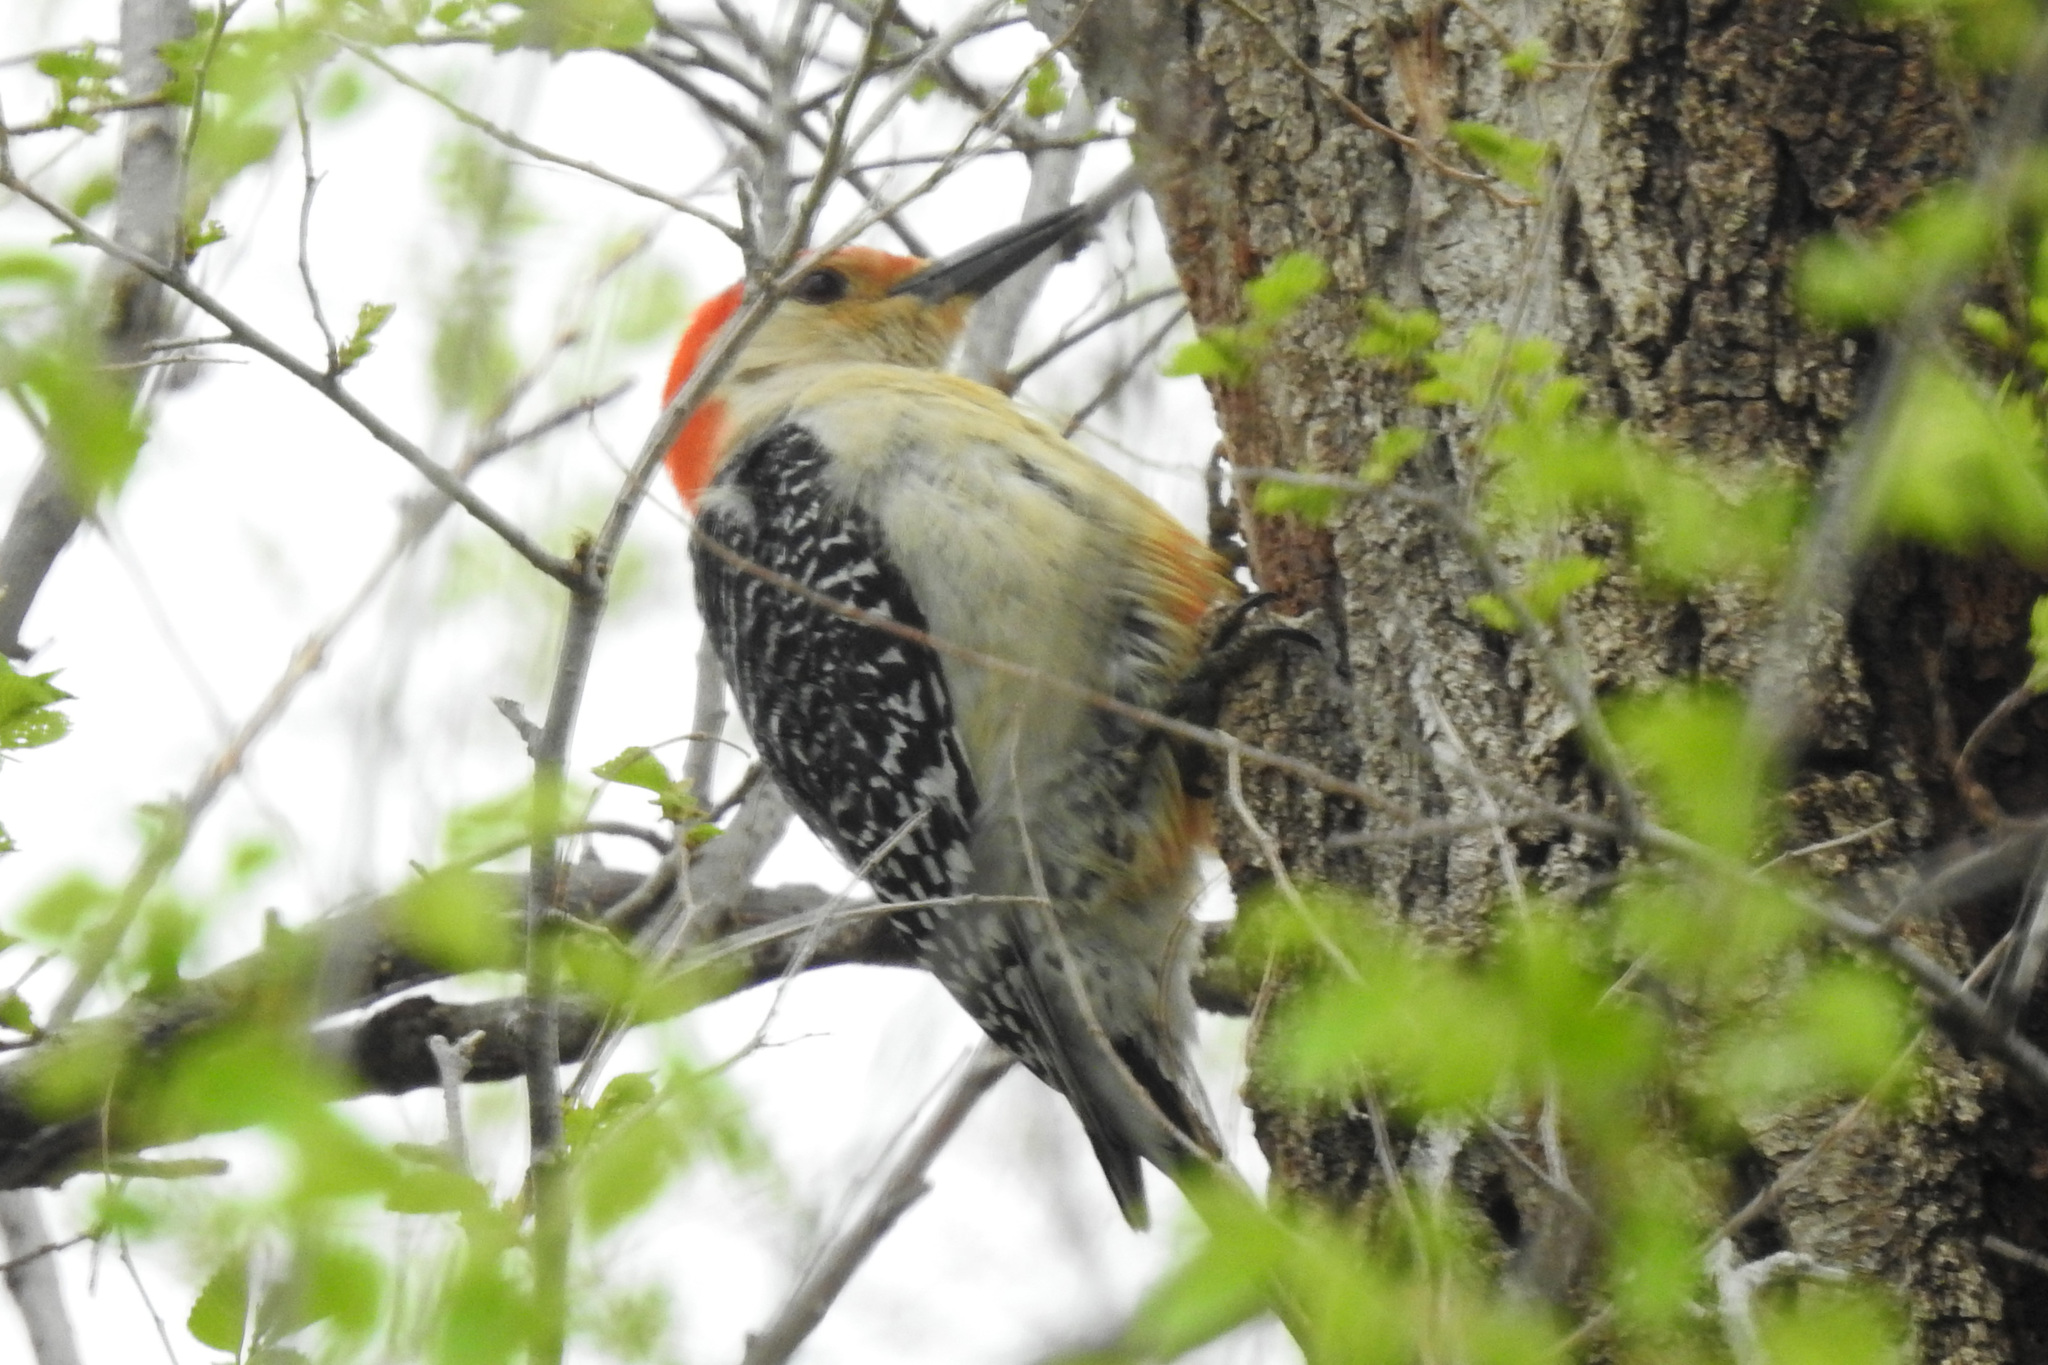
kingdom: Animalia
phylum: Chordata
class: Aves
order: Piciformes
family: Picidae
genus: Melanerpes
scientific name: Melanerpes carolinus
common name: Red-bellied woodpecker
